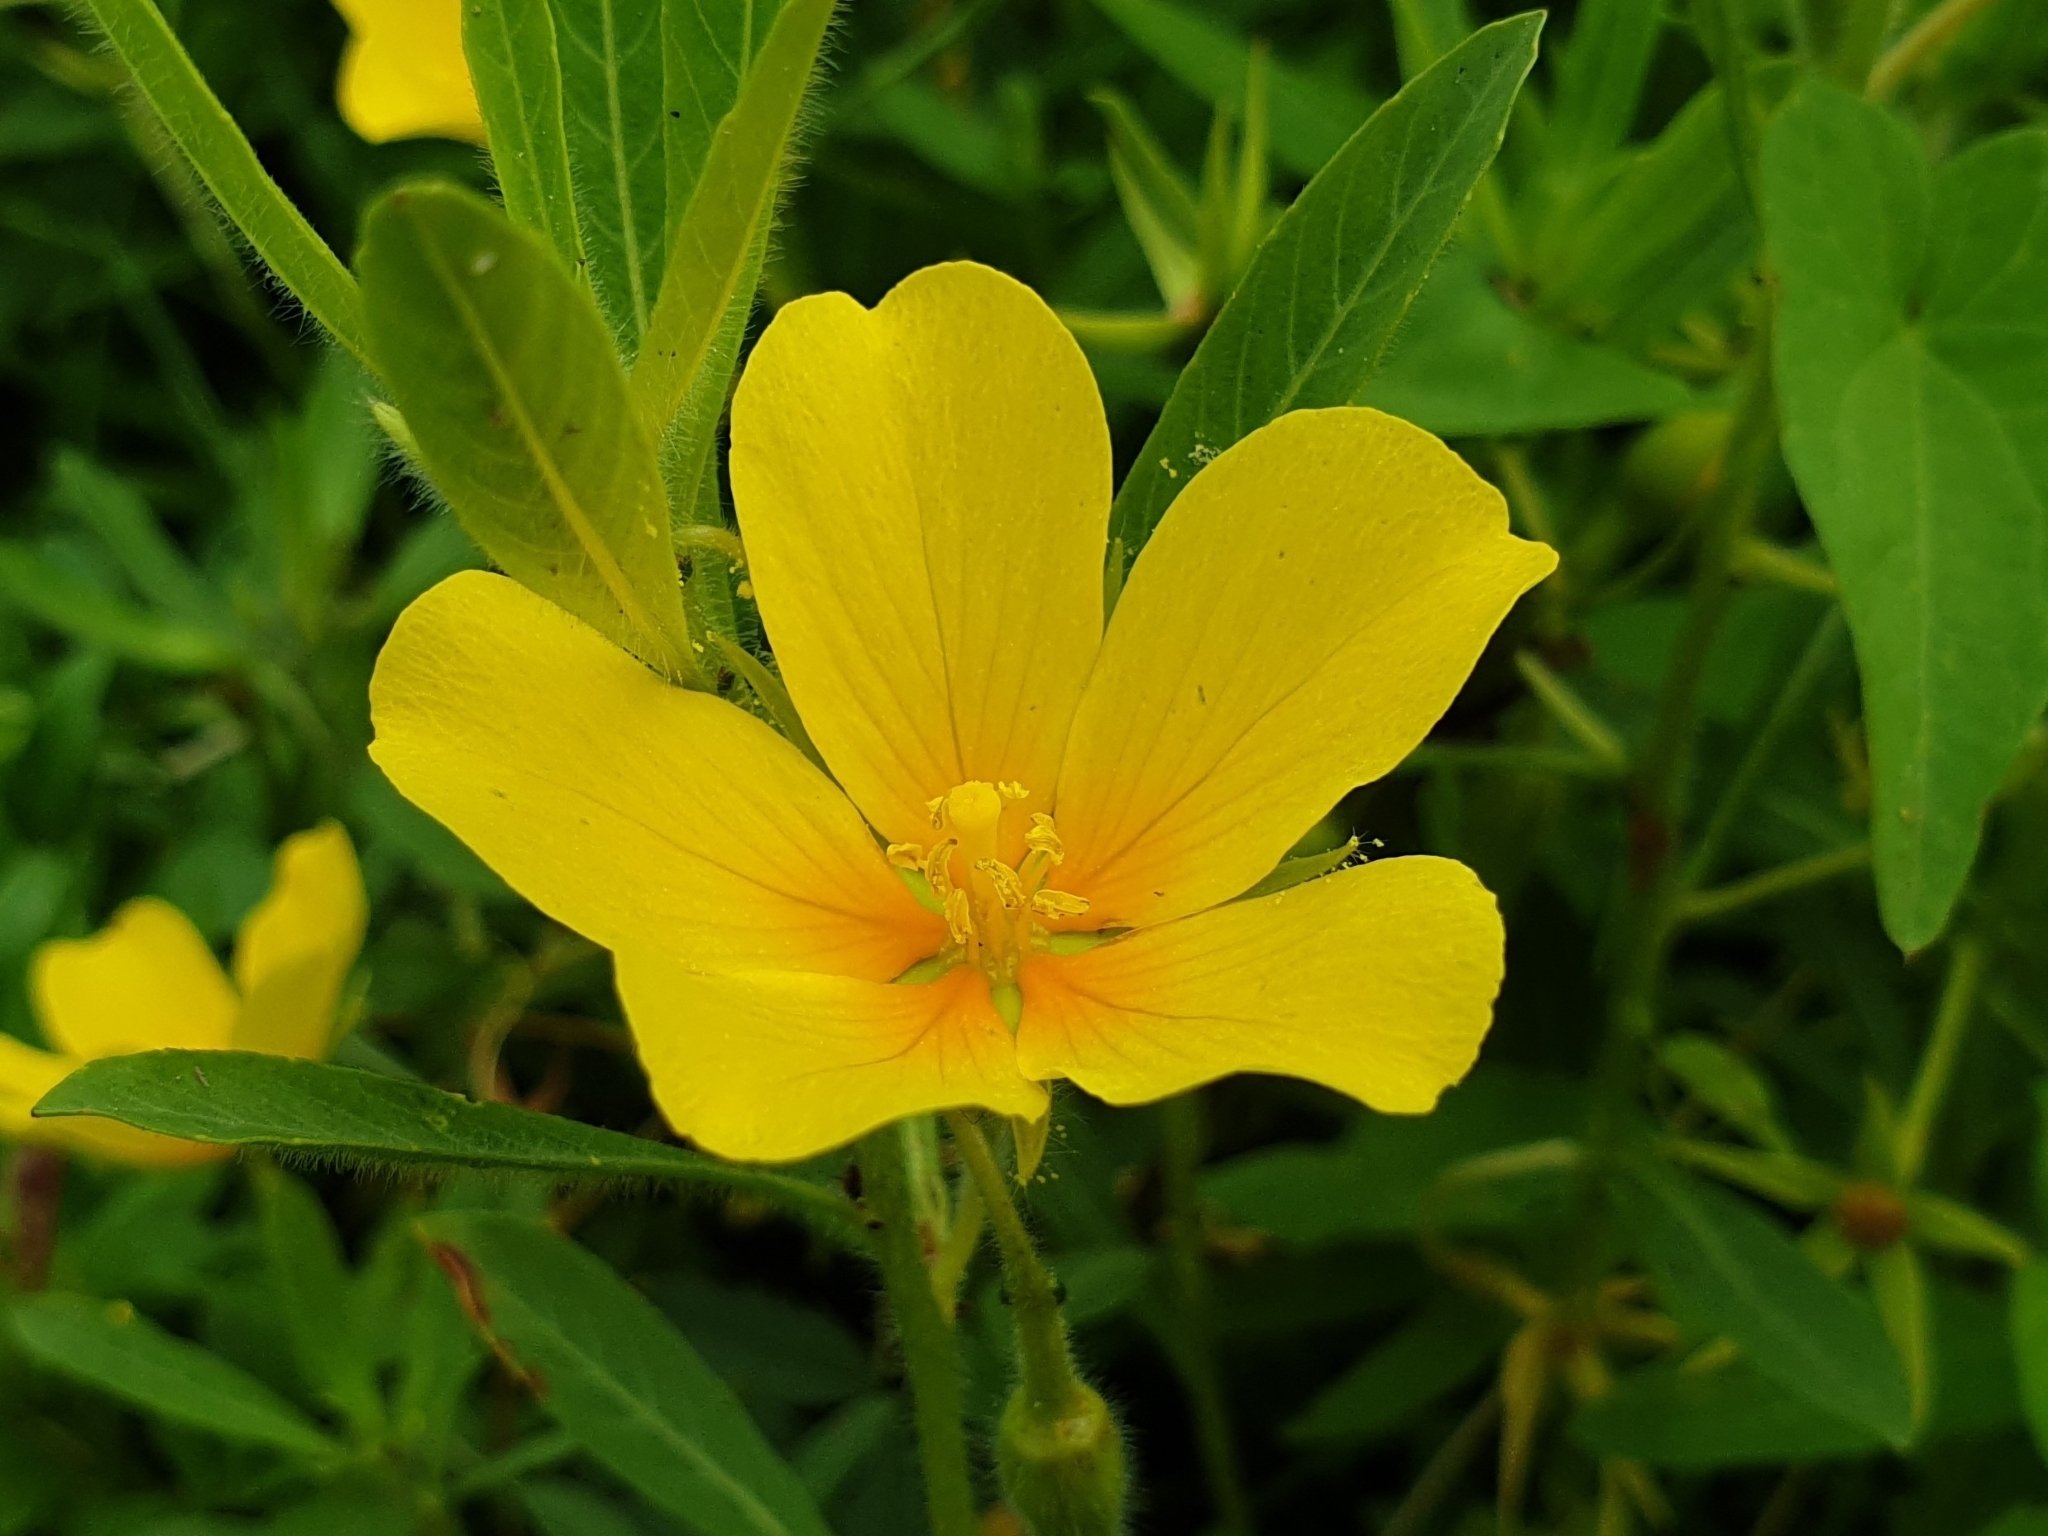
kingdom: Plantae
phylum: Tracheophyta
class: Magnoliopsida
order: Myrtales
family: Onagraceae
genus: Ludwigia
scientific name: Ludwigia grandiflora
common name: Water primrose
